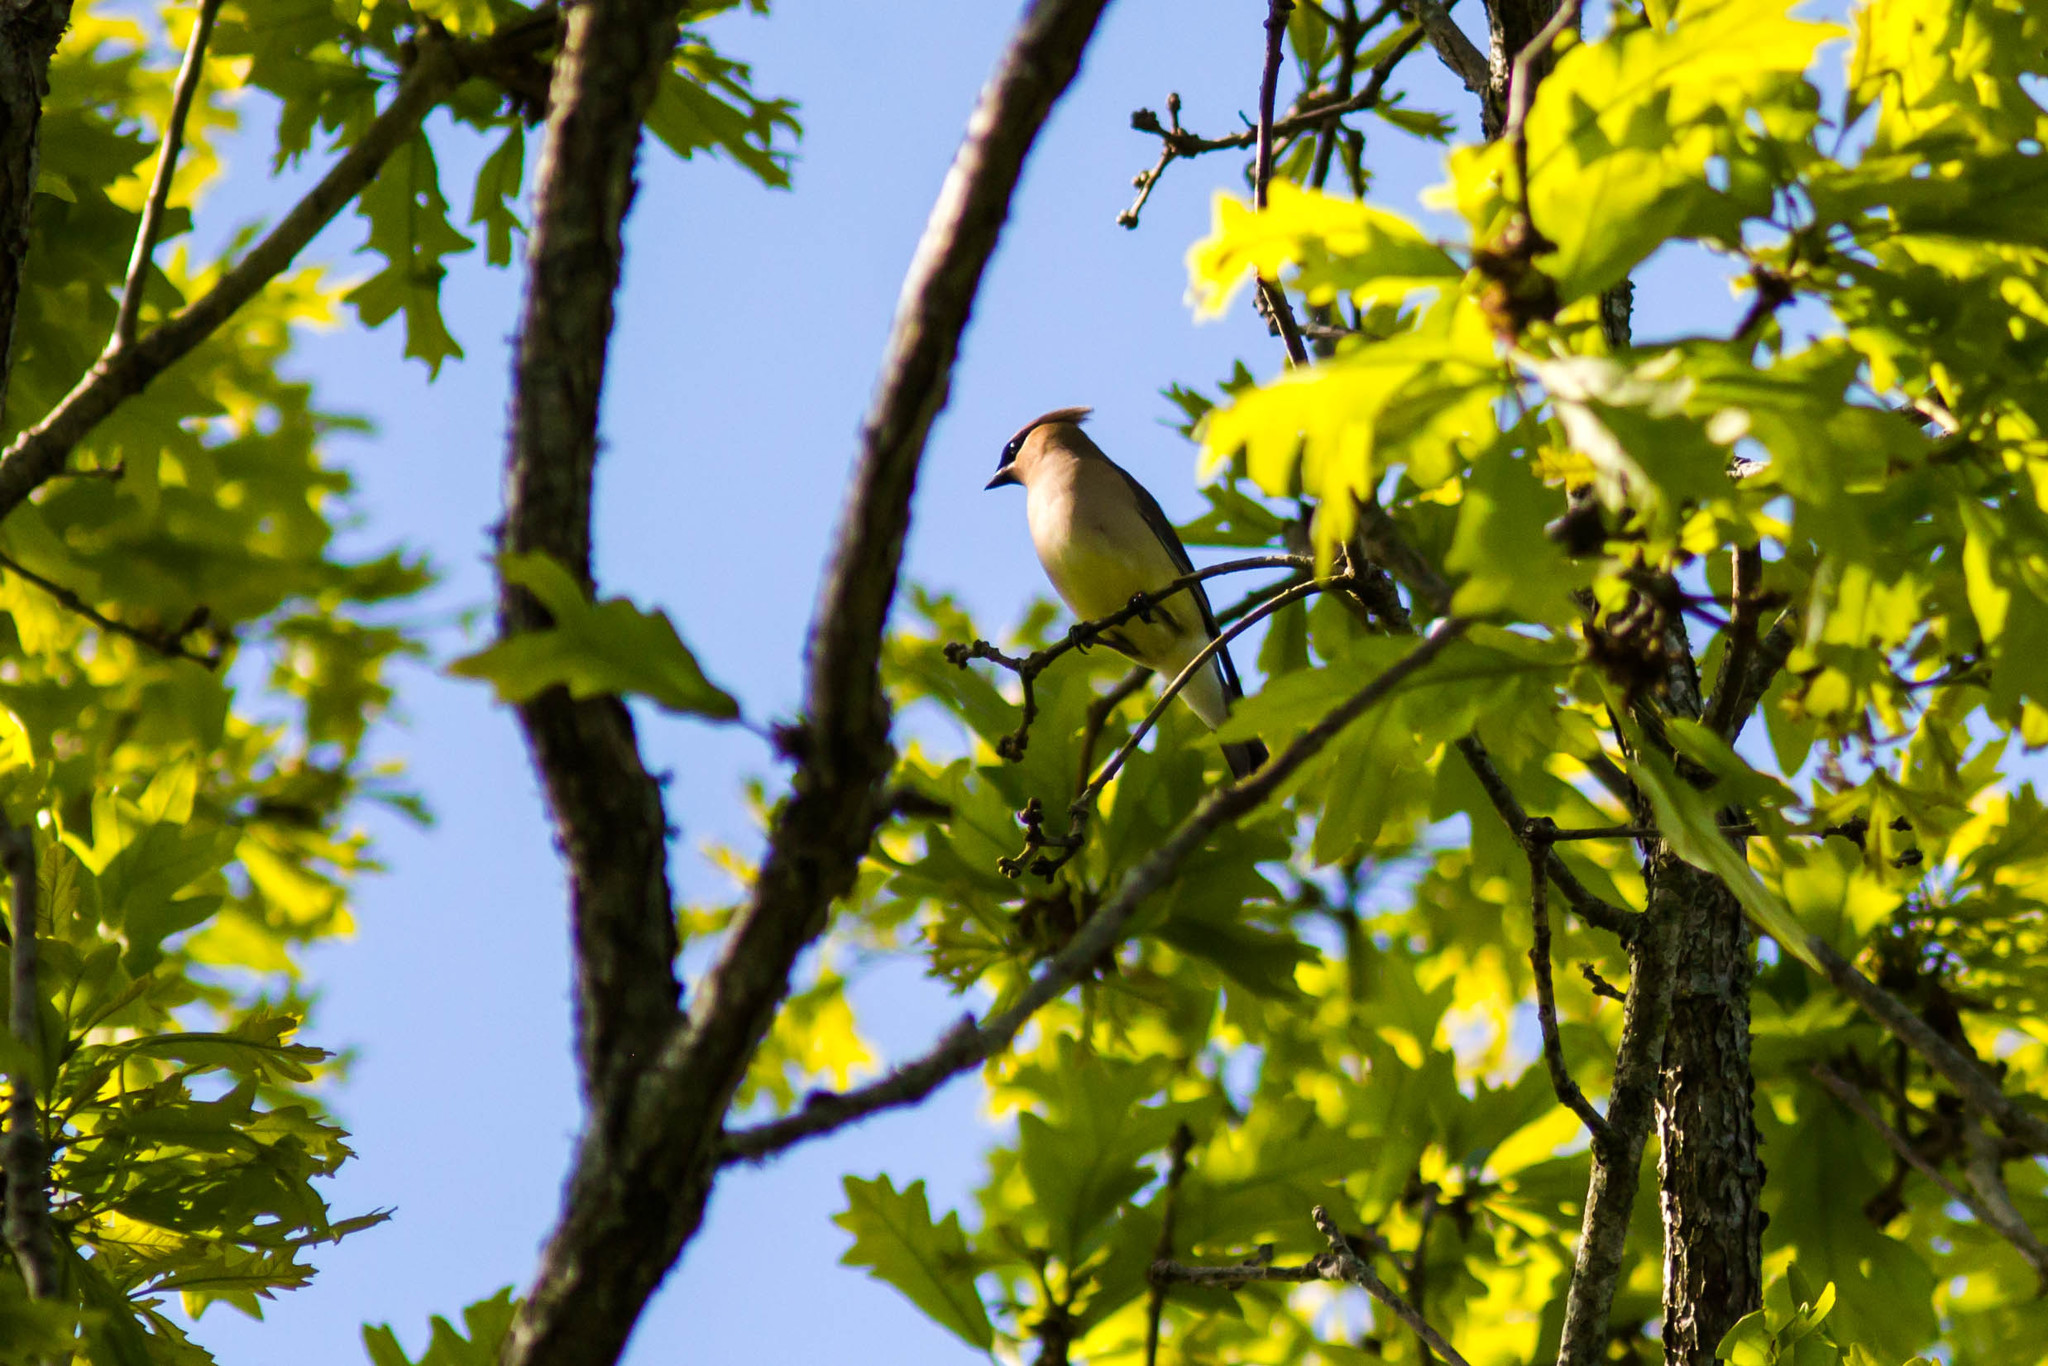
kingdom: Animalia
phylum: Chordata
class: Aves
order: Passeriformes
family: Bombycillidae
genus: Bombycilla
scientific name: Bombycilla cedrorum
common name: Cedar waxwing
